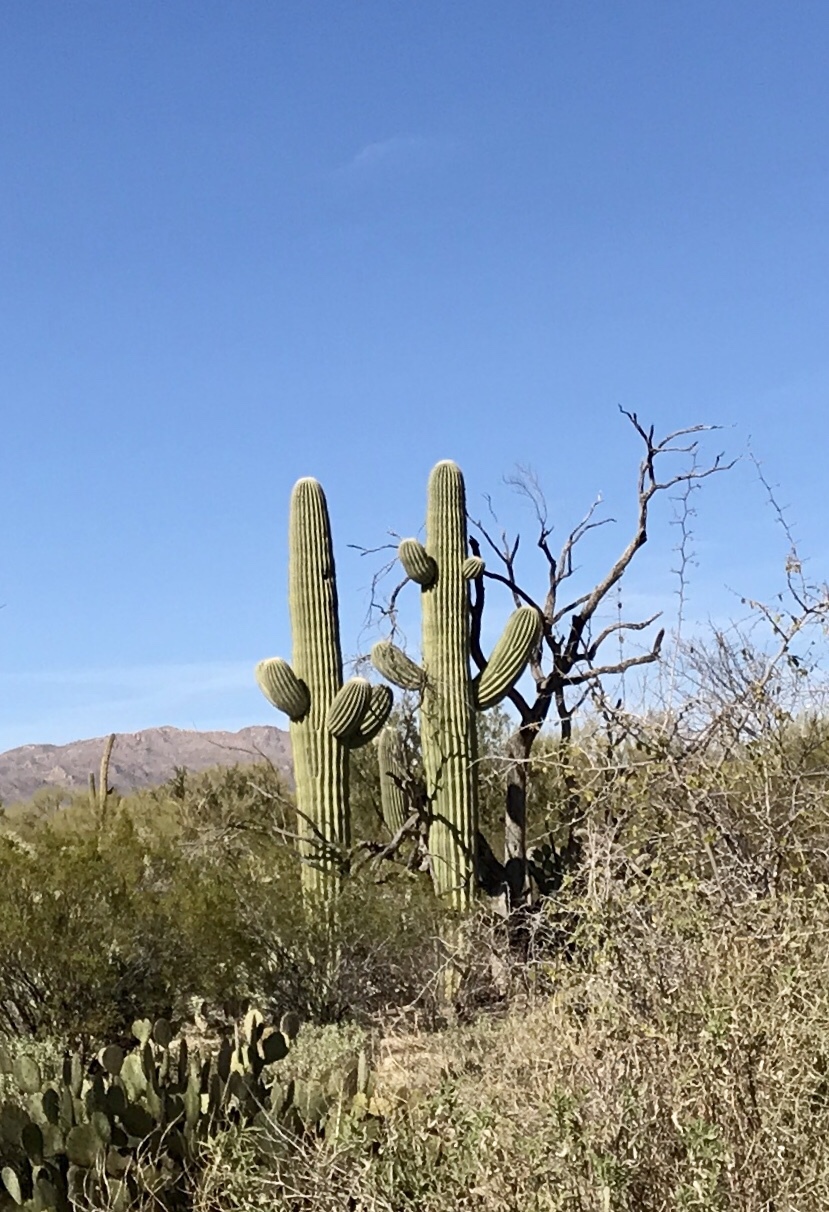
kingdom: Plantae
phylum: Tracheophyta
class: Magnoliopsida
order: Caryophyllales
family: Cactaceae
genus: Carnegiea
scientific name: Carnegiea gigantea
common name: Saguaro
